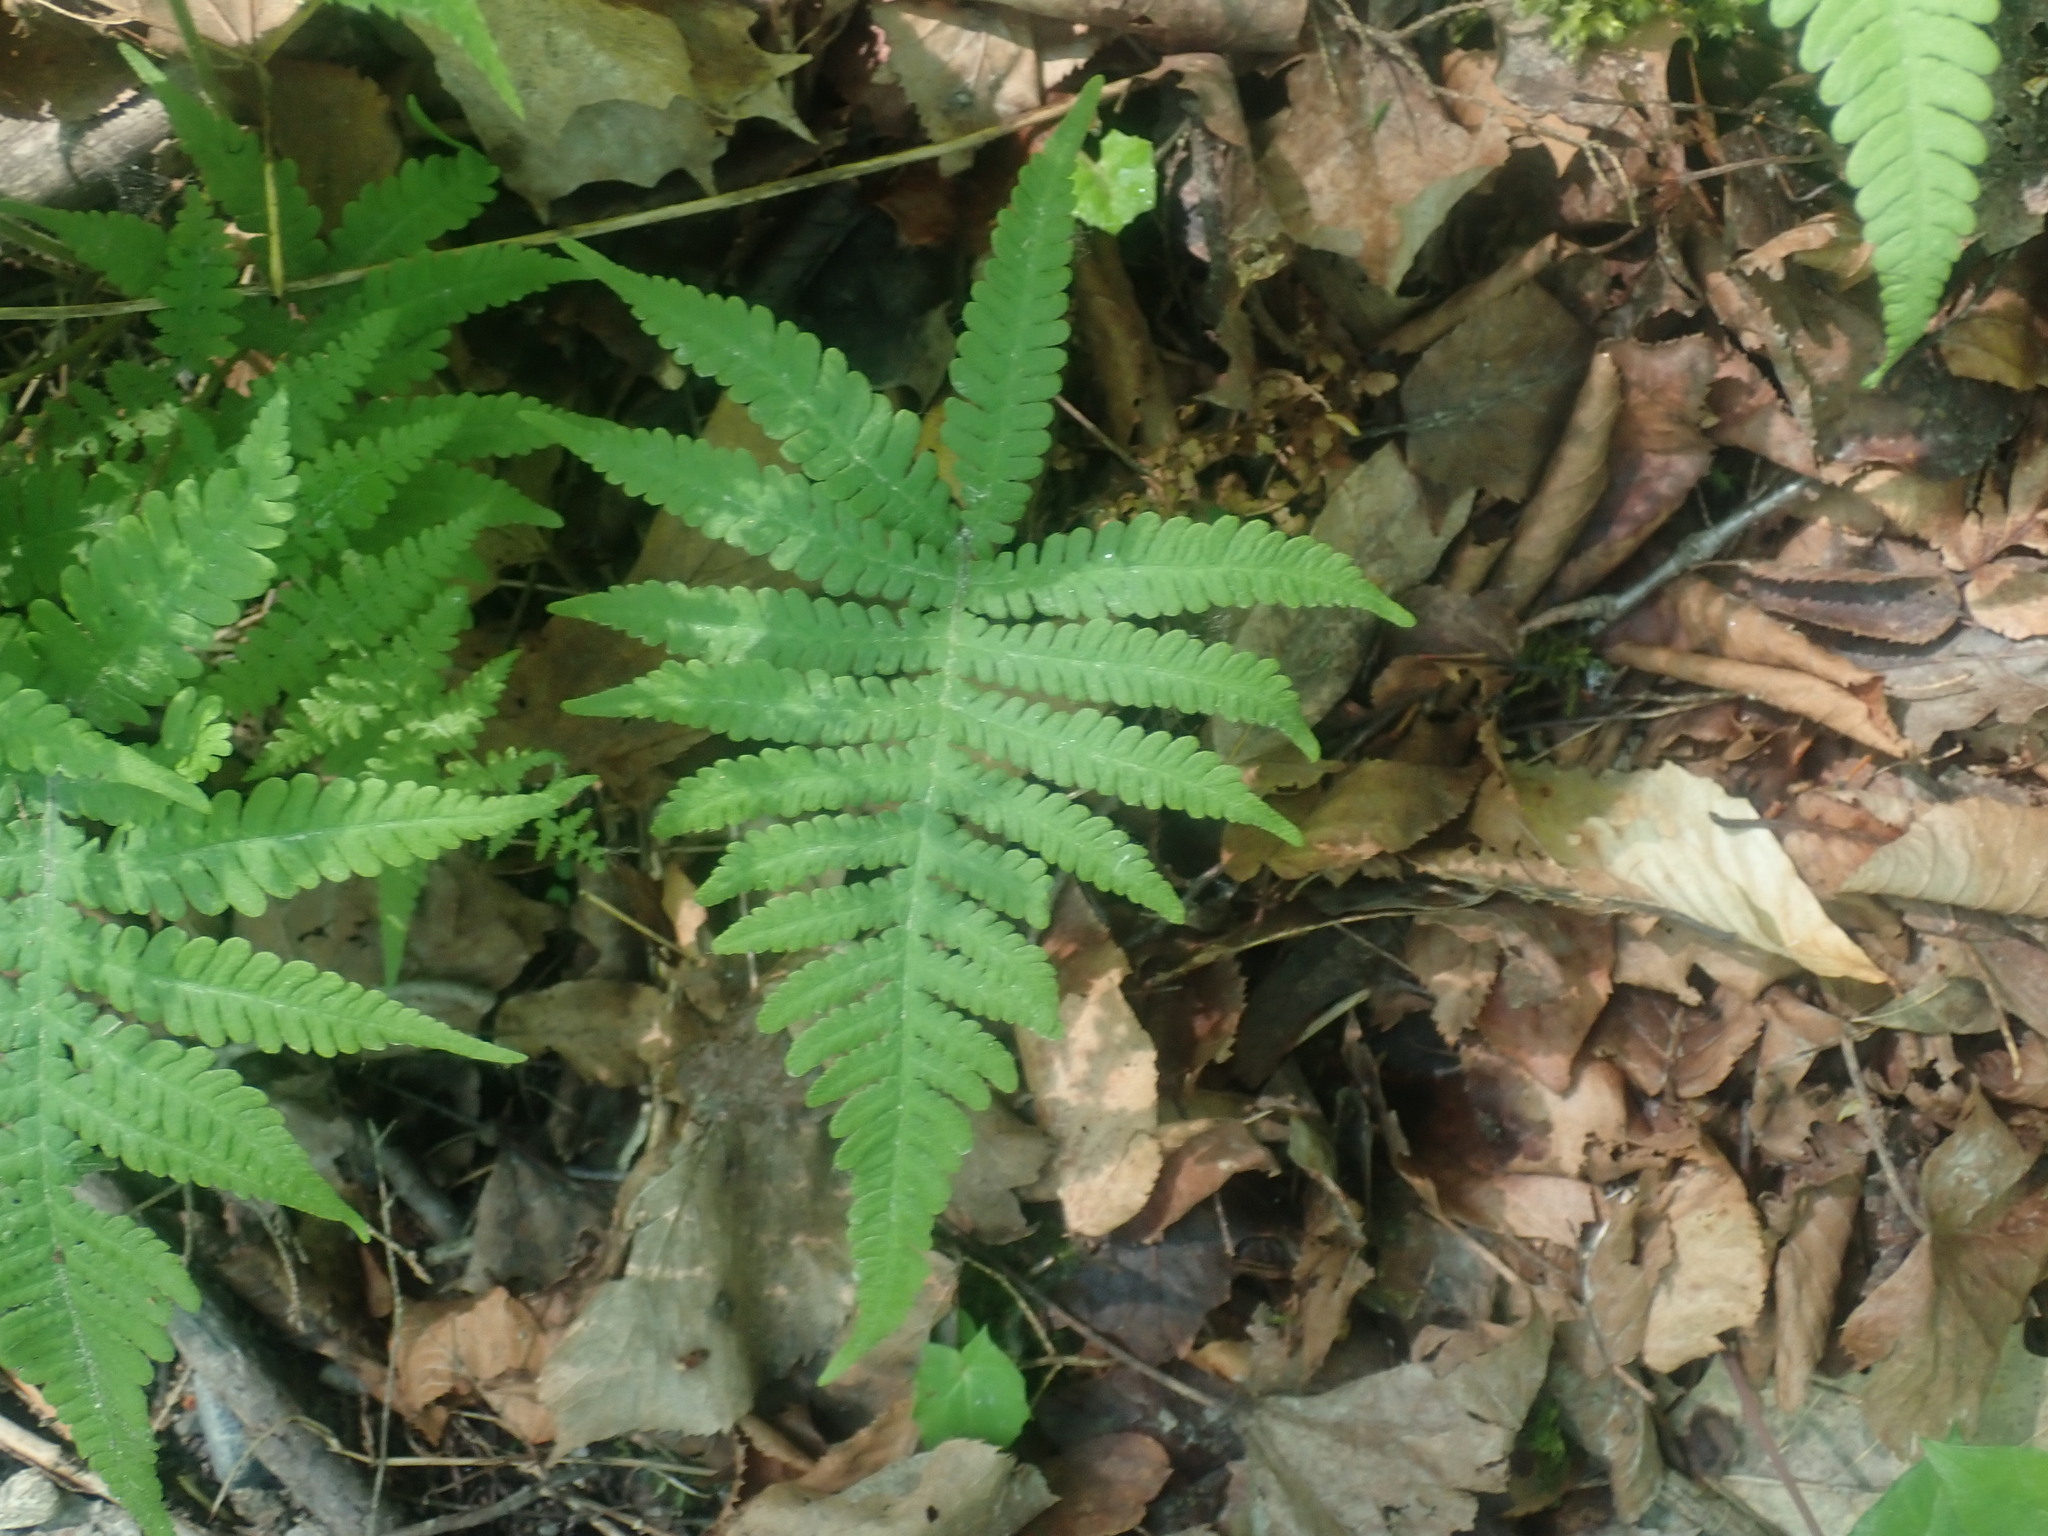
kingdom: Plantae
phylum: Tracheophyta
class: Polypodiopsida
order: Polypodiales
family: Thelypteridaceae
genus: Phegopteris
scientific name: Phegopteris connectilis
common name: Beech fern
